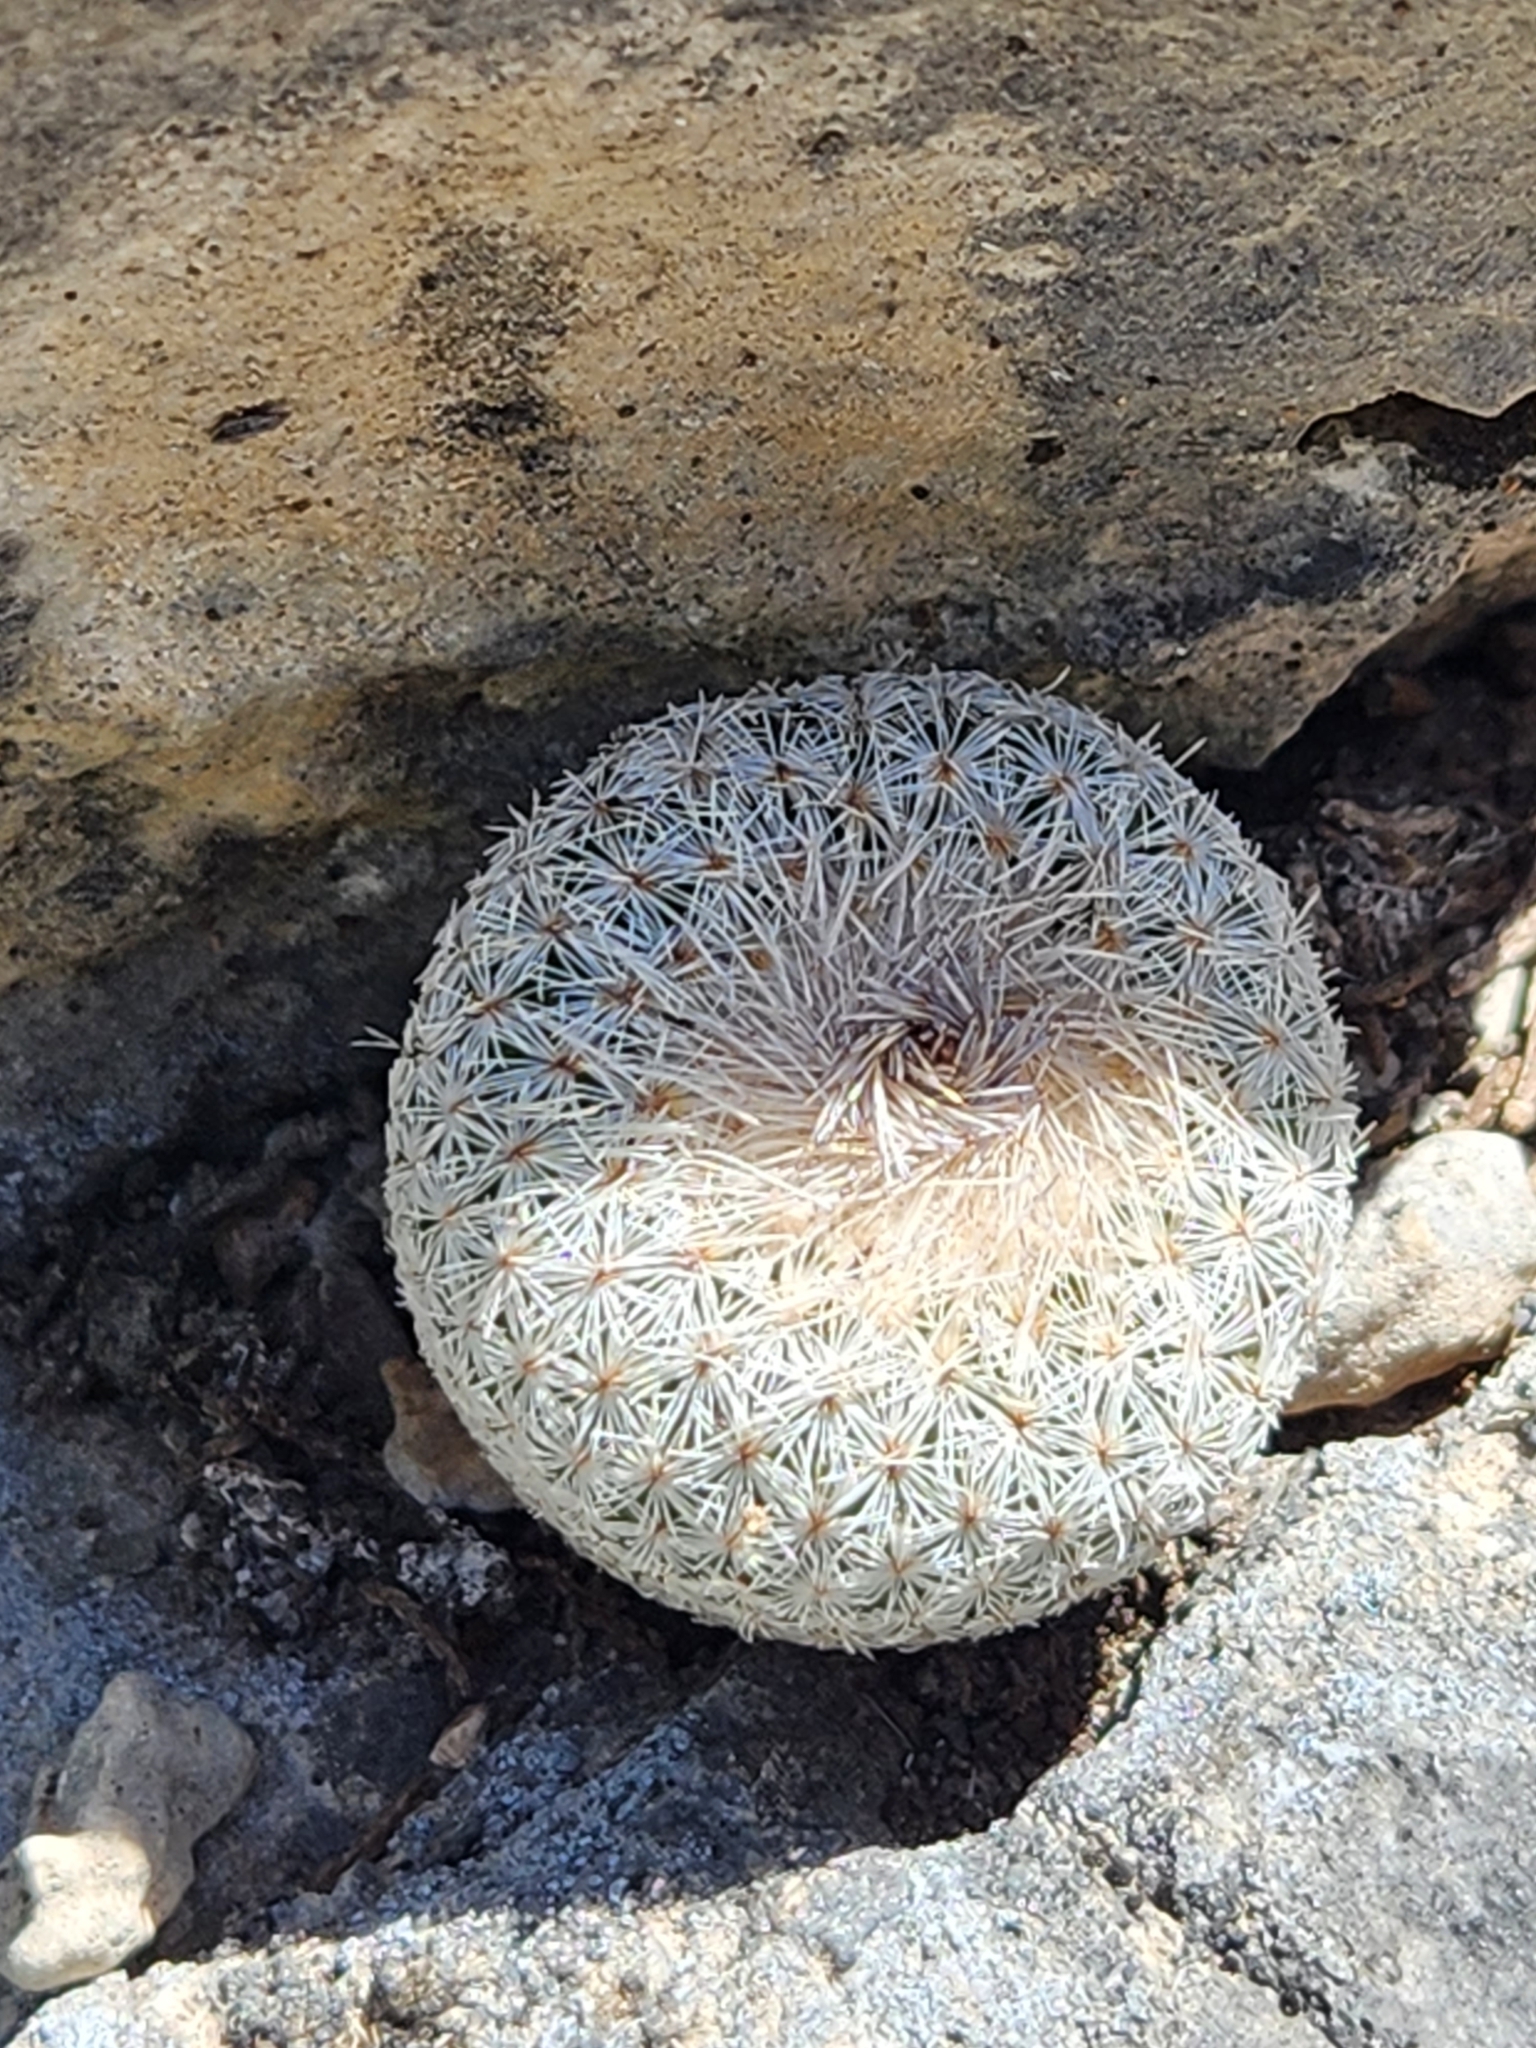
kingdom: Plantae
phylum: Tracheophyta
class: Magnoliopsida
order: Caryophyllales
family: Cactaceae
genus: Epithelantha
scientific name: Epithelantha micromeris
